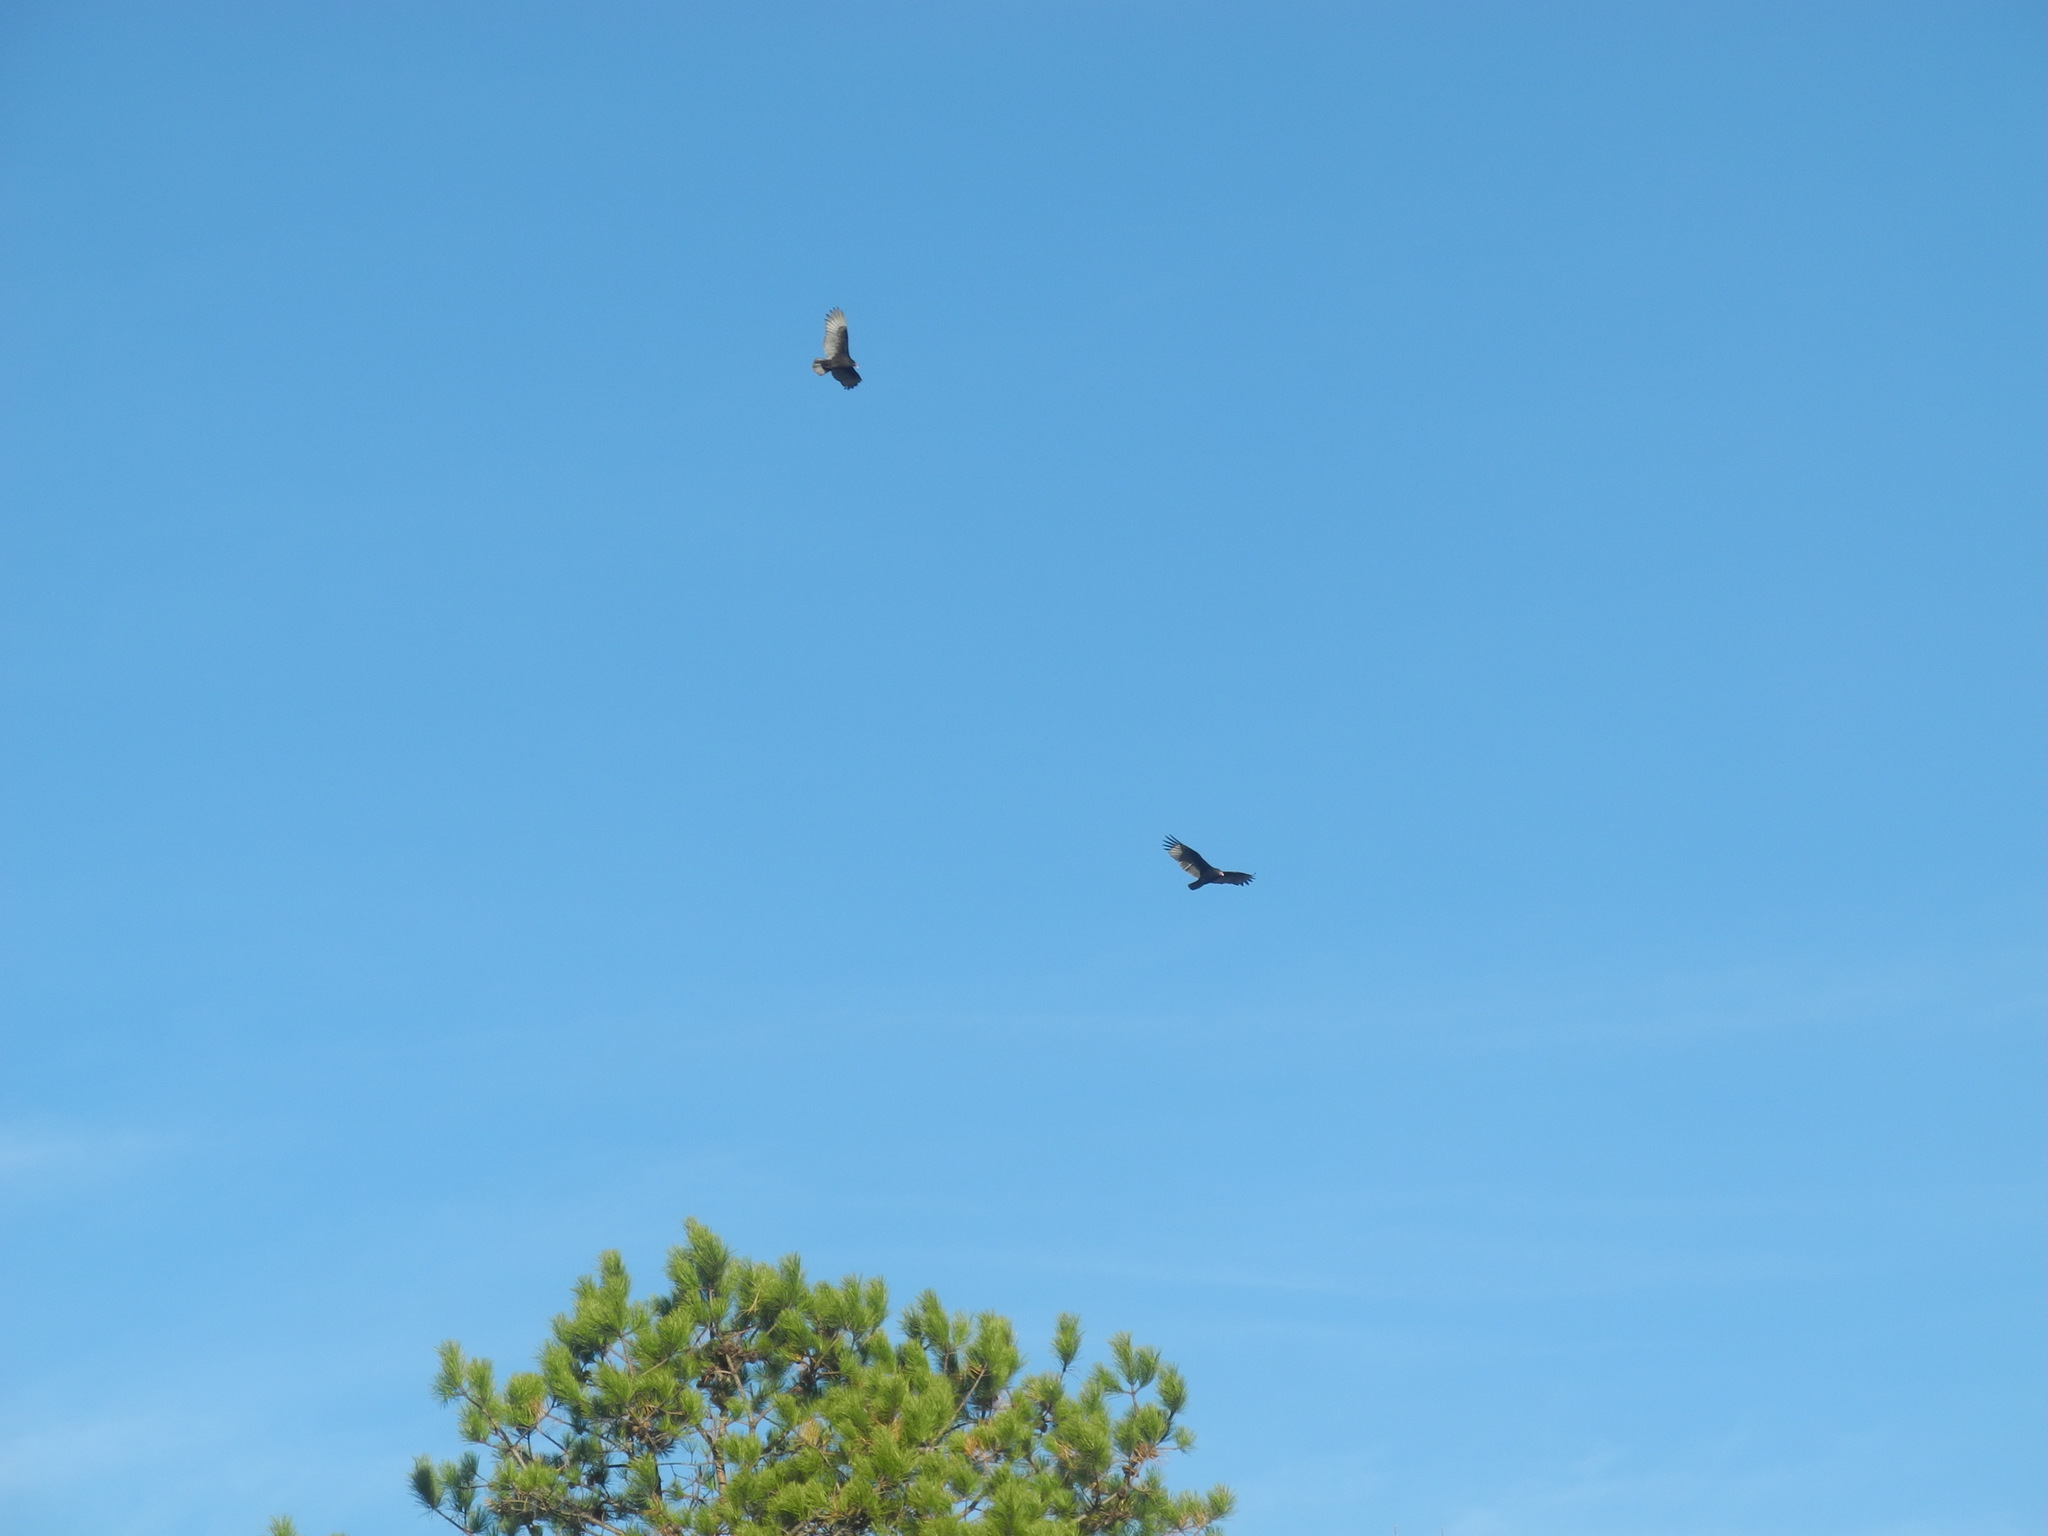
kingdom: Animalia
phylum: Chordata
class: Aves
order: Accipitriformes
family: Cathartidae
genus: Cathartes
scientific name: Cathartes aura
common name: Turkey vulture
